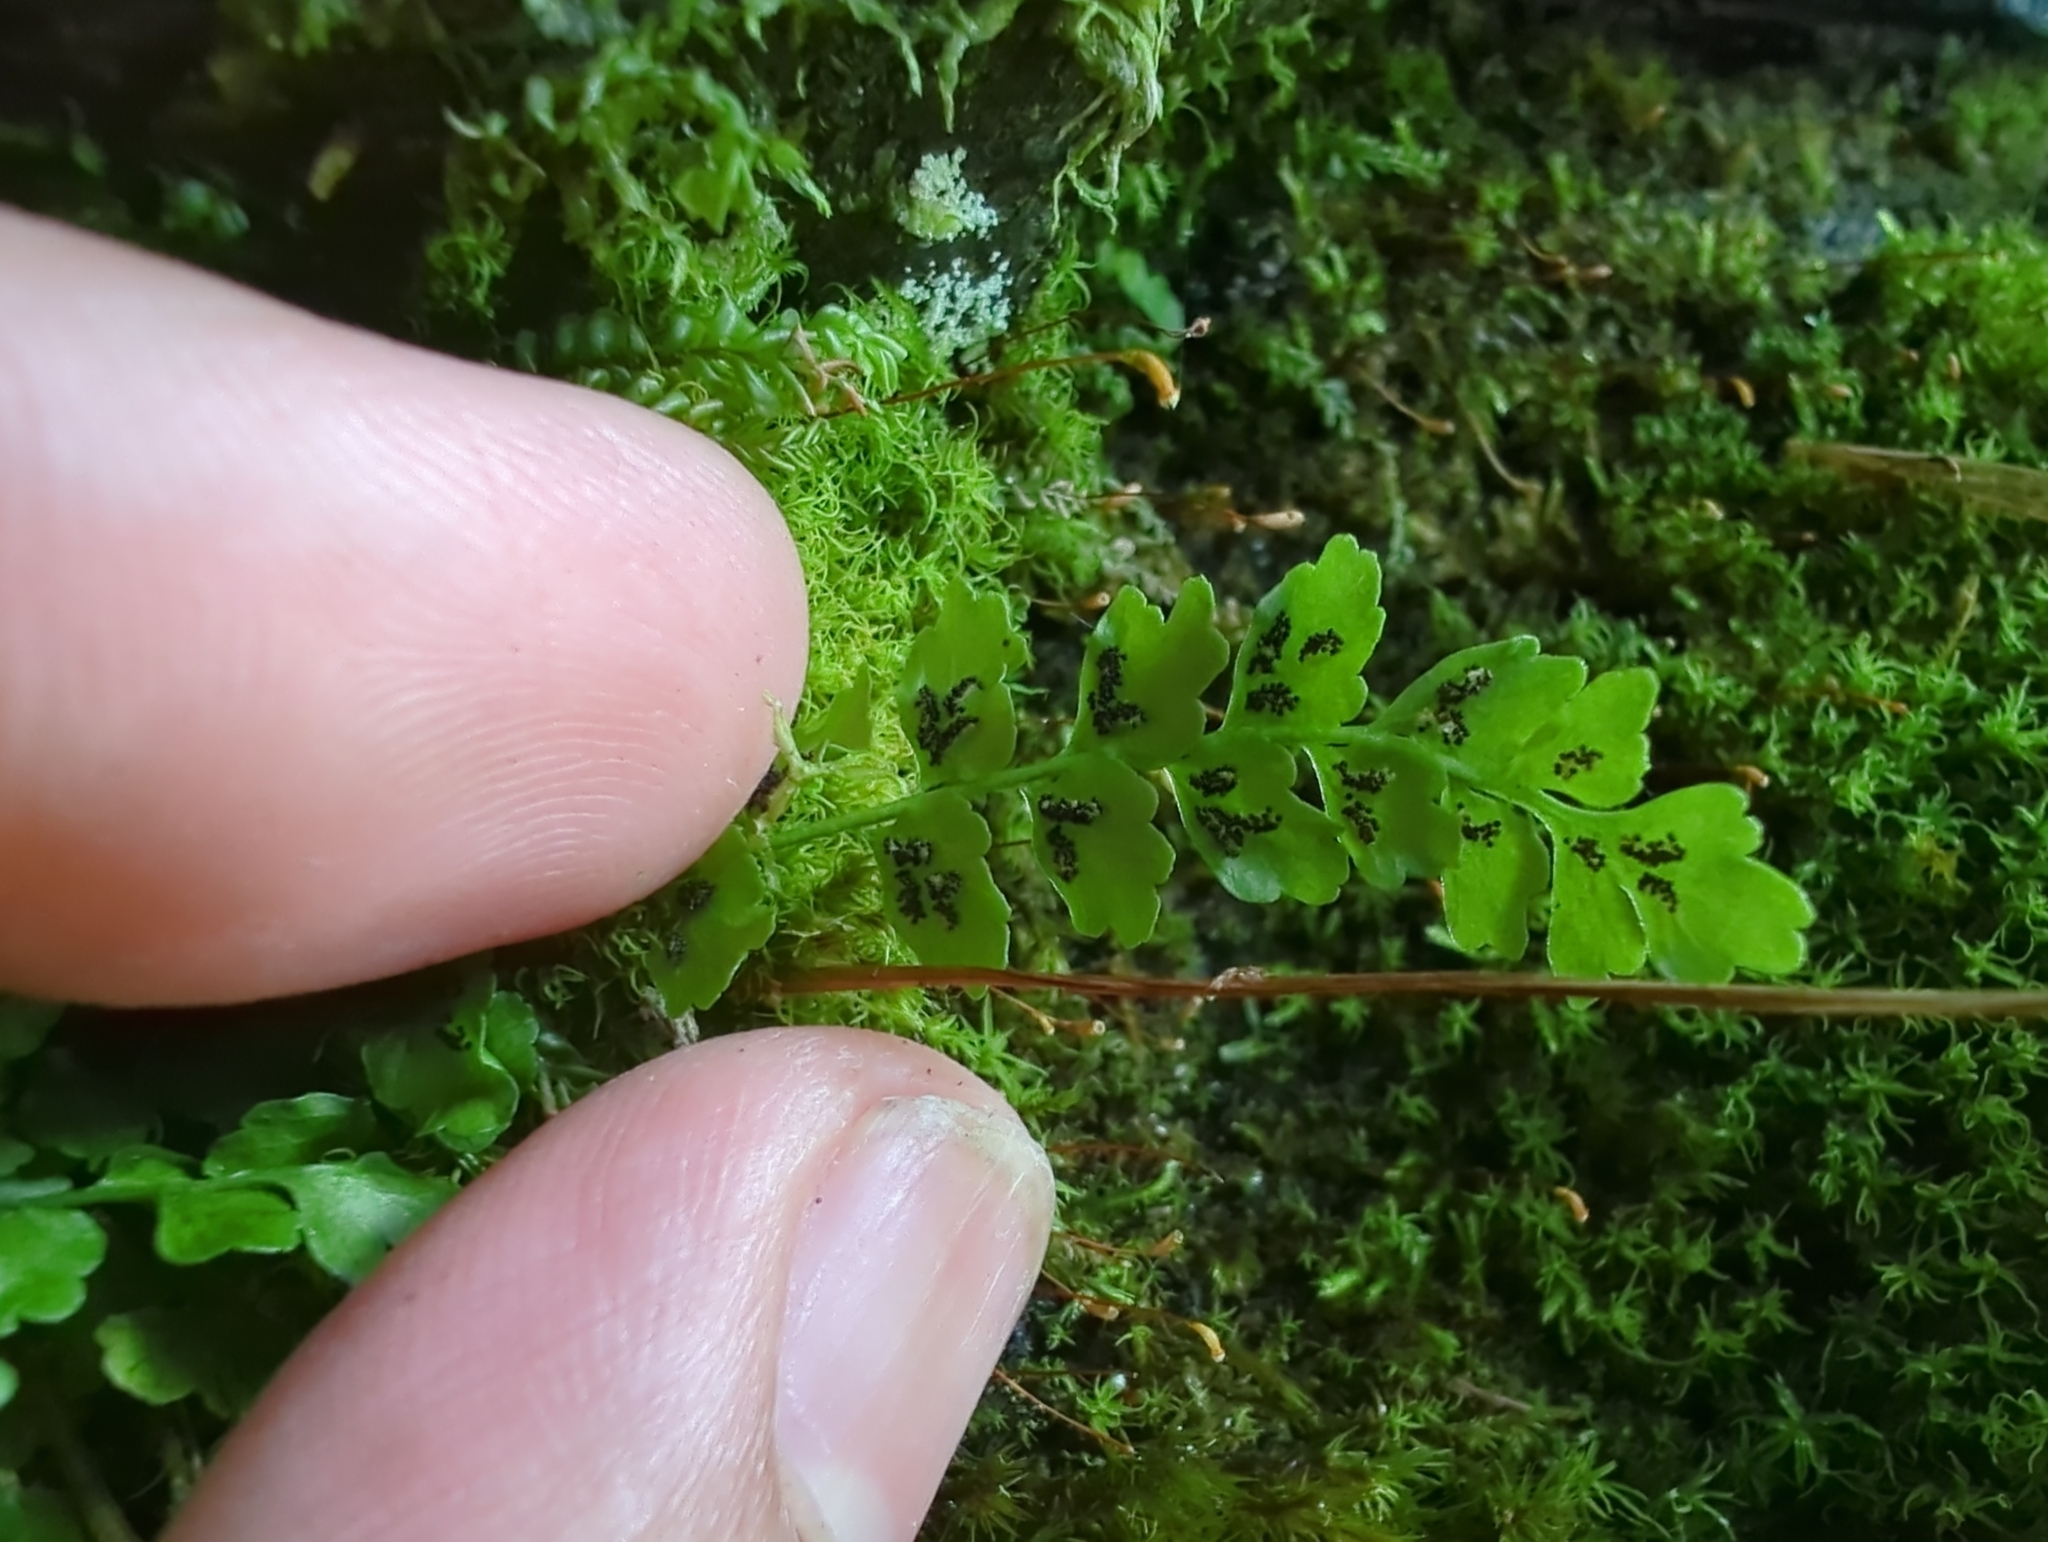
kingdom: Plantae
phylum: Tracheophyta
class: Polypodiopsida
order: Polypodiales
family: Aspleniaceae
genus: Asplenium
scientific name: Asplenium viride
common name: Green spleenwort
